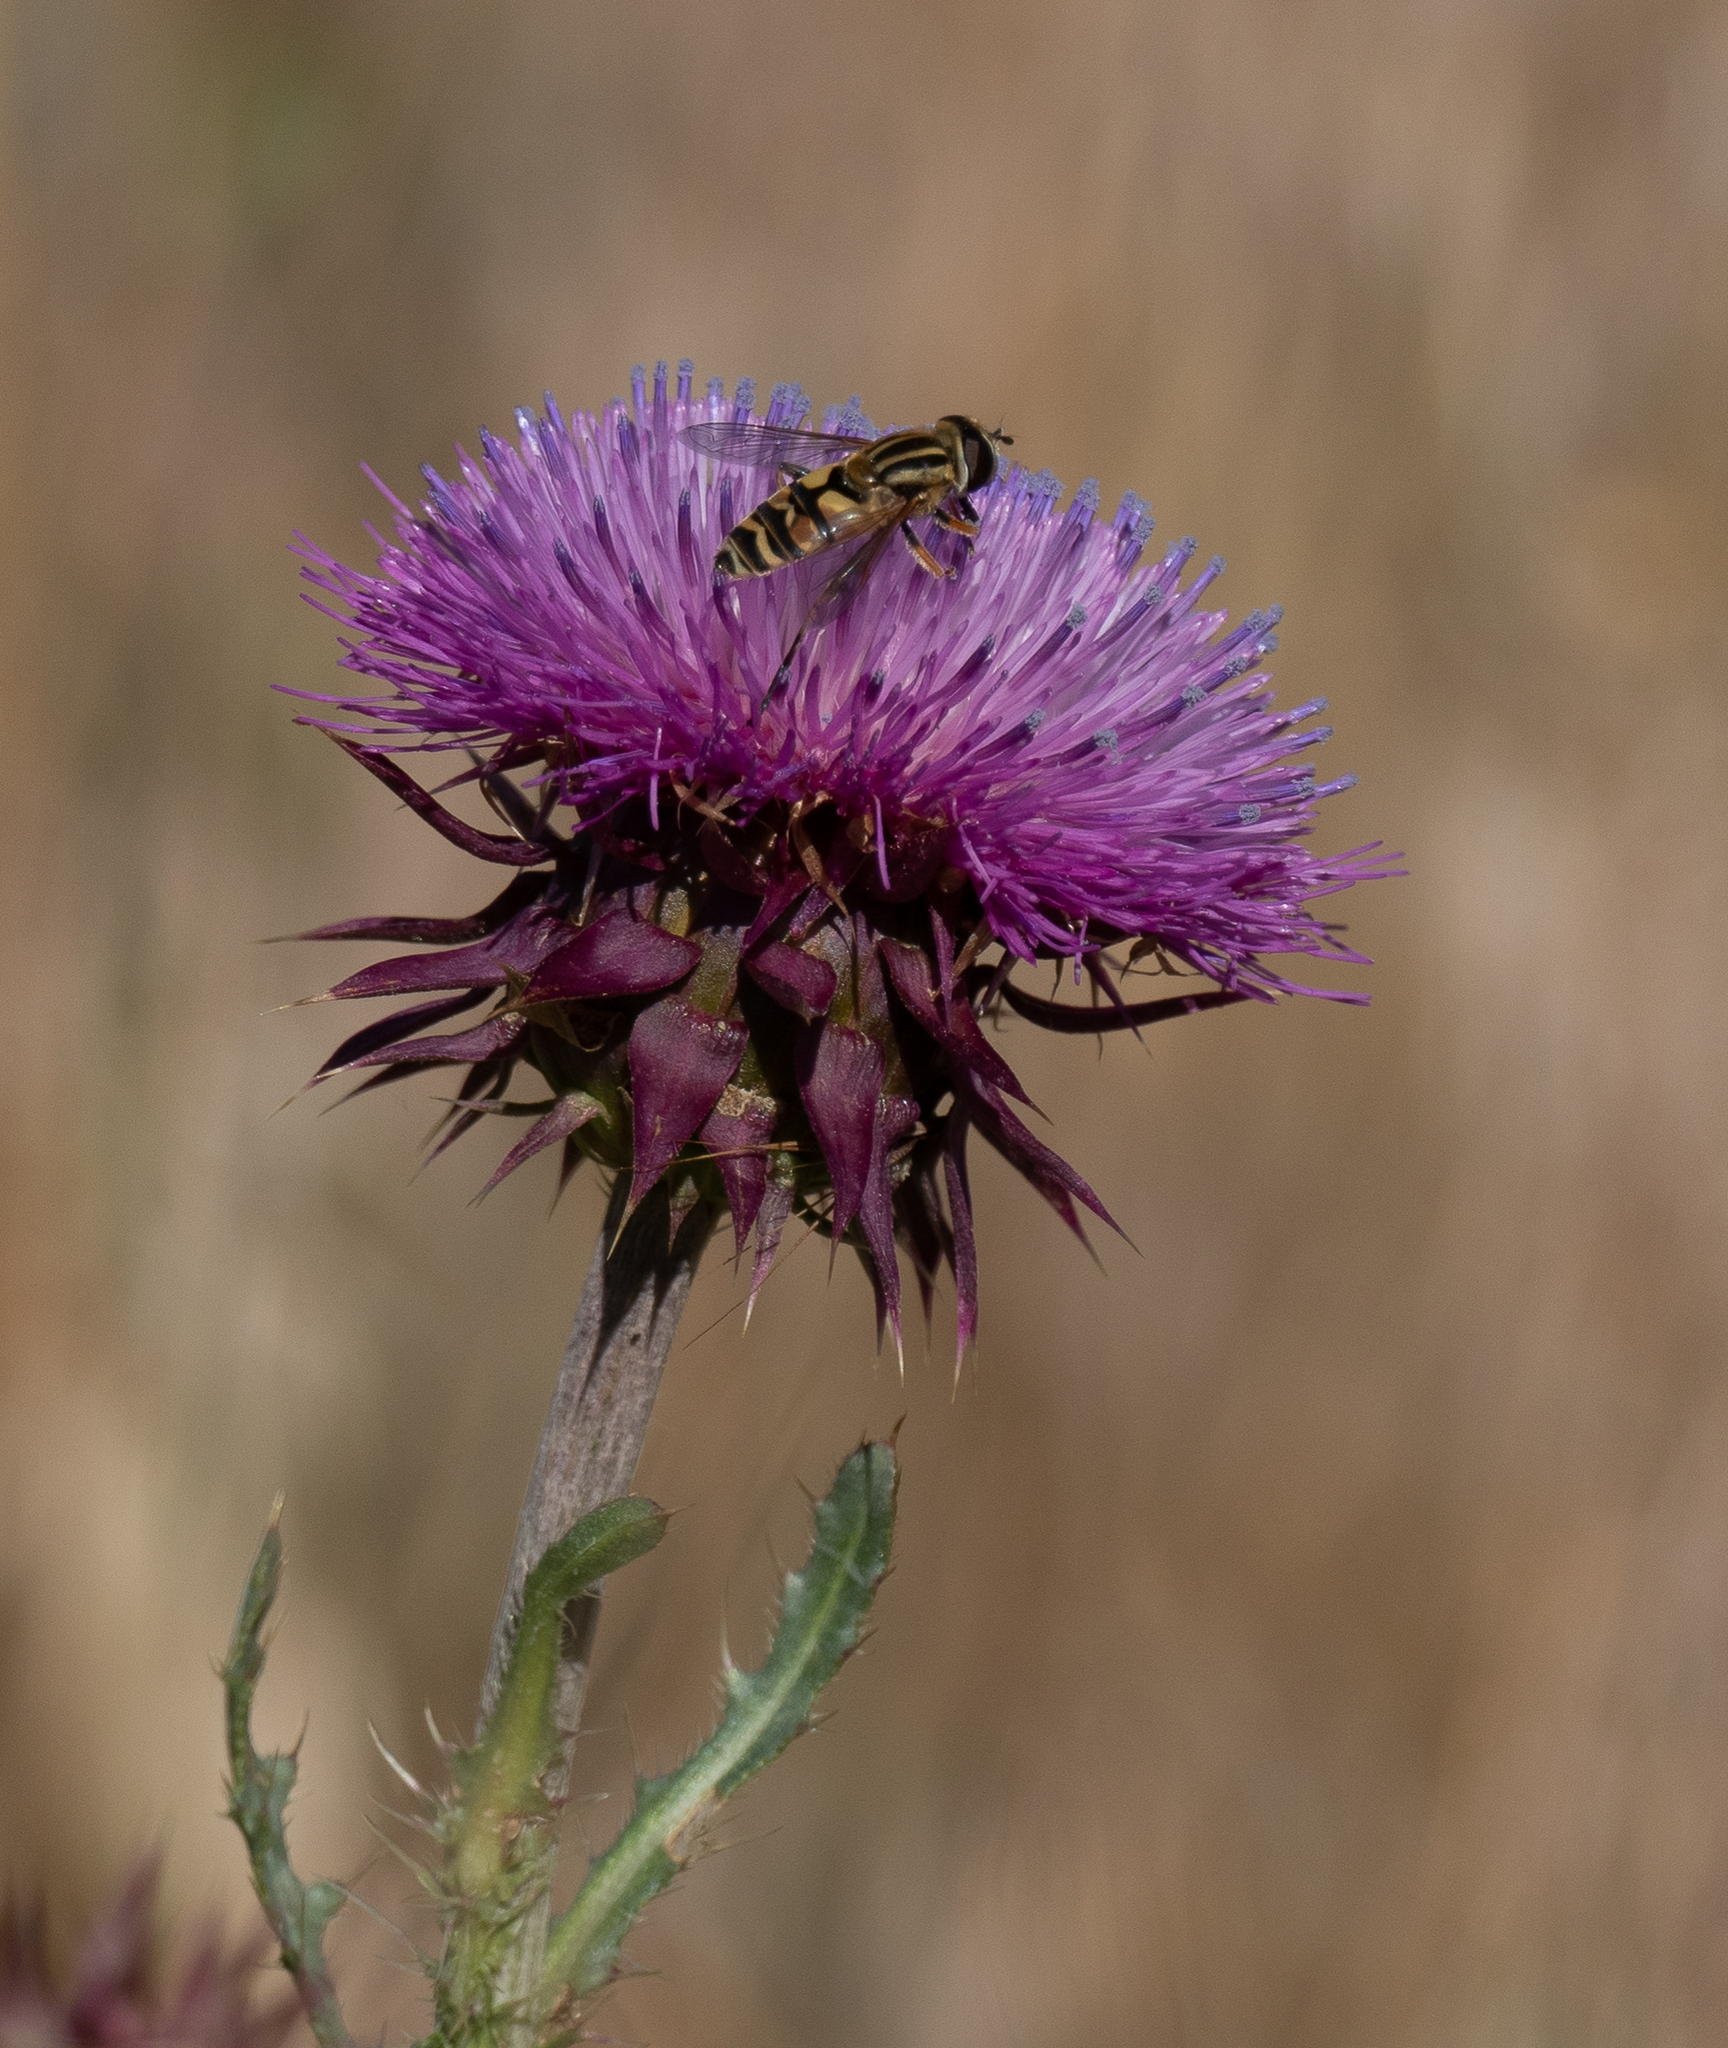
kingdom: Animalia
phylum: Arthropoda
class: Insecta
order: Diptera
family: Syrphidae
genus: Helophilus
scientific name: Helophilus latifrons
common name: Broad-headed marsh fly
